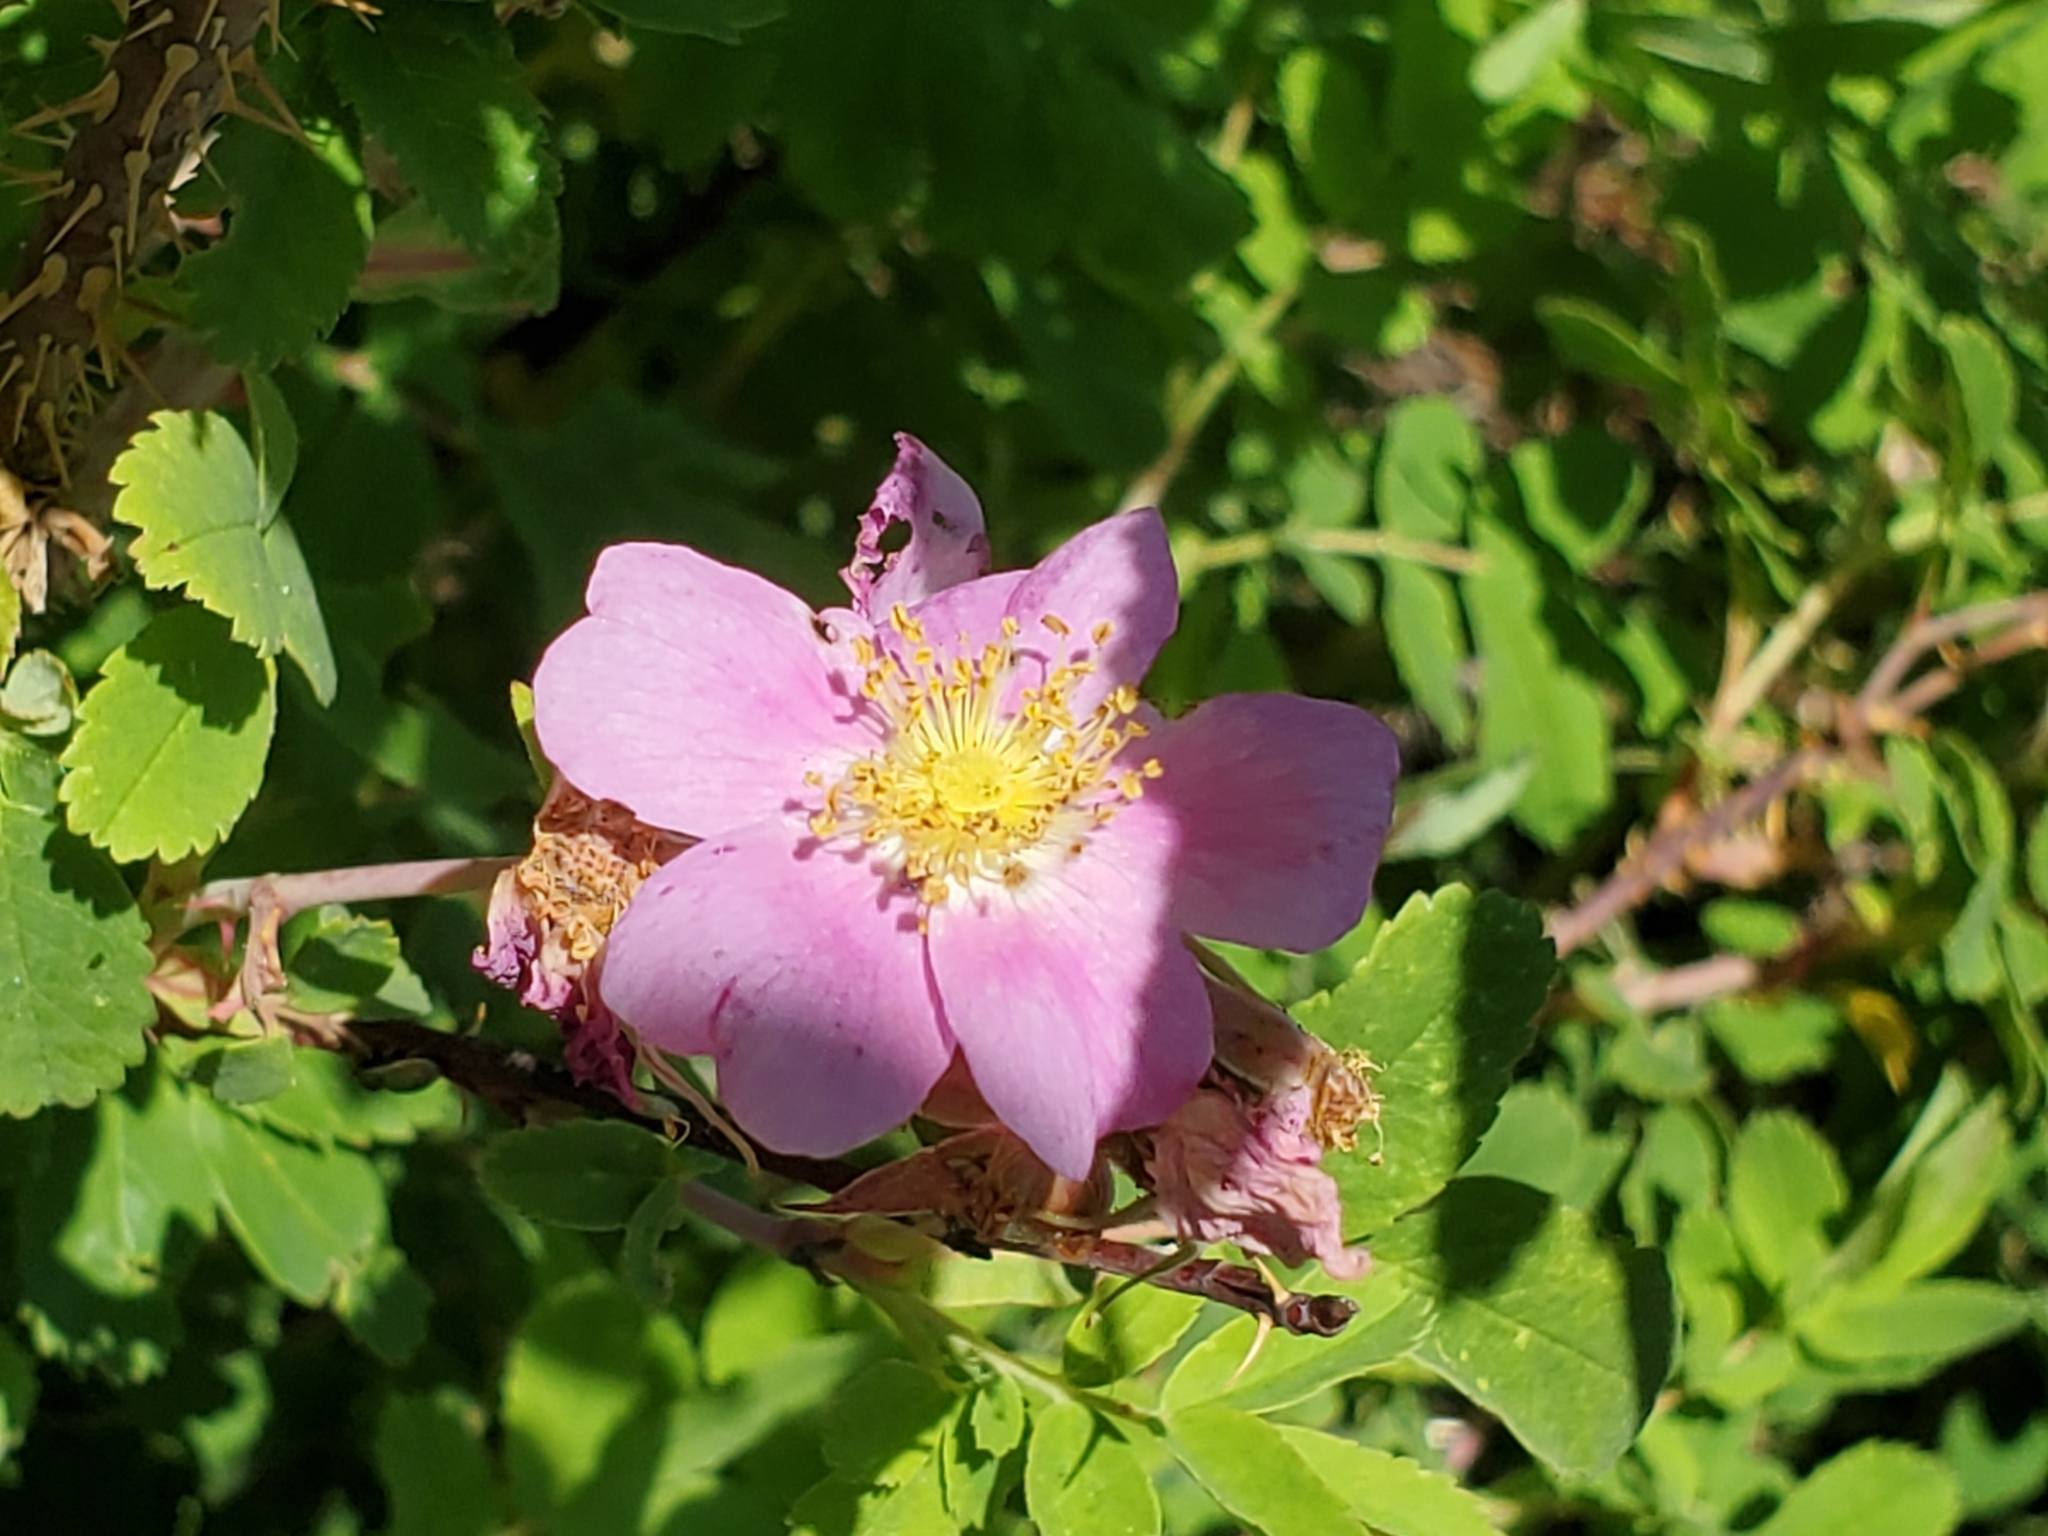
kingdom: Plantae
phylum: Tracheophyta
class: Magnoliopsida
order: Rosales
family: Rosaceae
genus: Rosa
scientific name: Rosa woodsii
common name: Woods's rose
